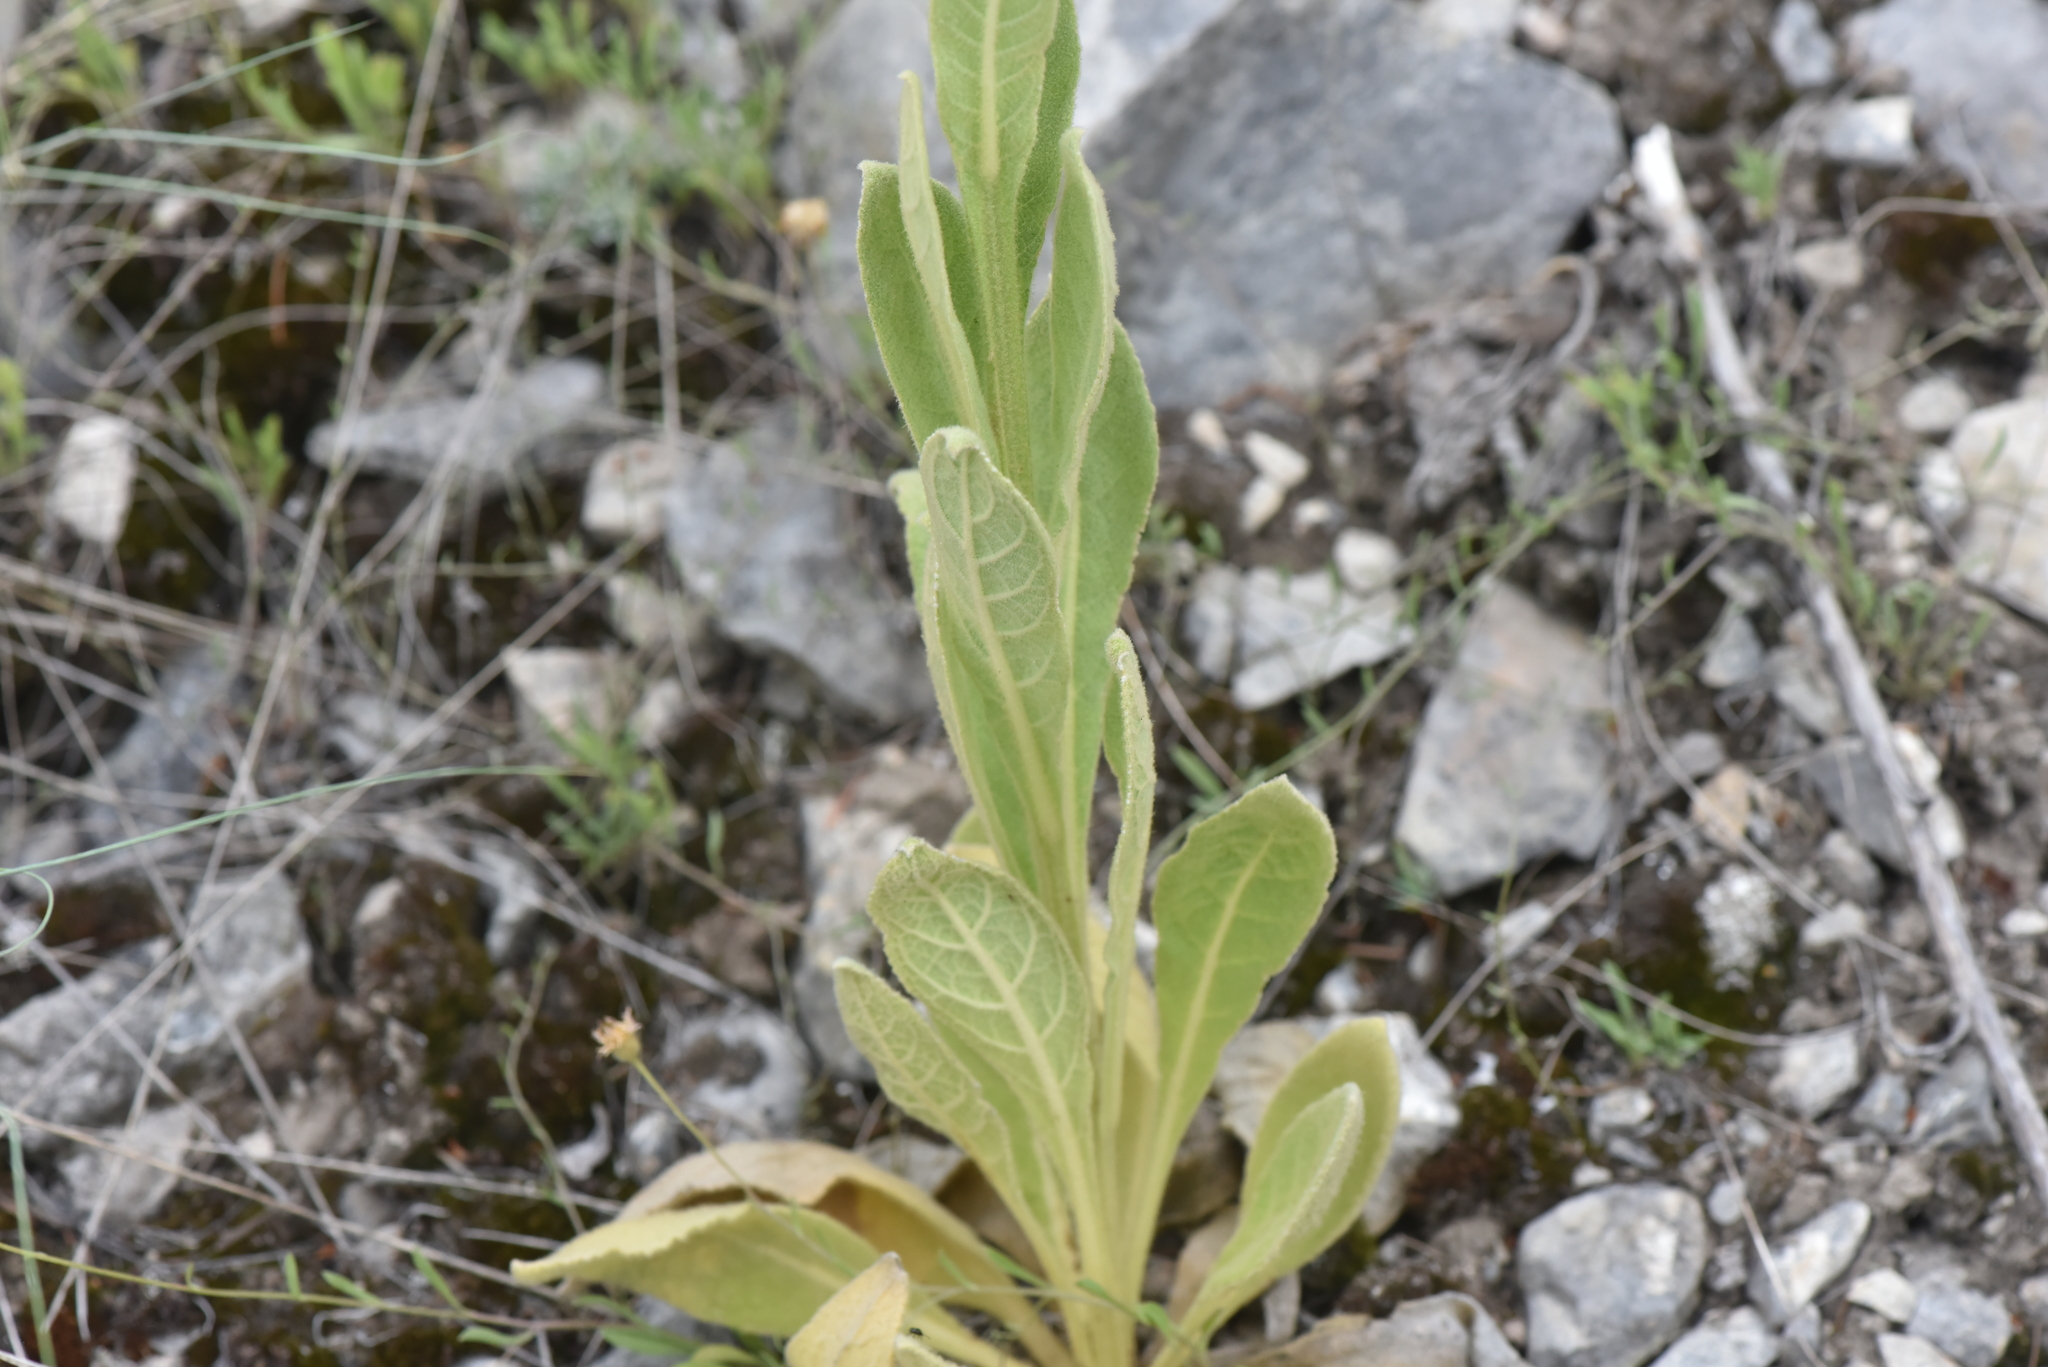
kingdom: Plantae
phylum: Tracheophyta
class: Magnoliopsida
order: Lamiales
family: Scrophulariaceae
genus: Verbascum
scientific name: Verbascum thapsus
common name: Common mullein
